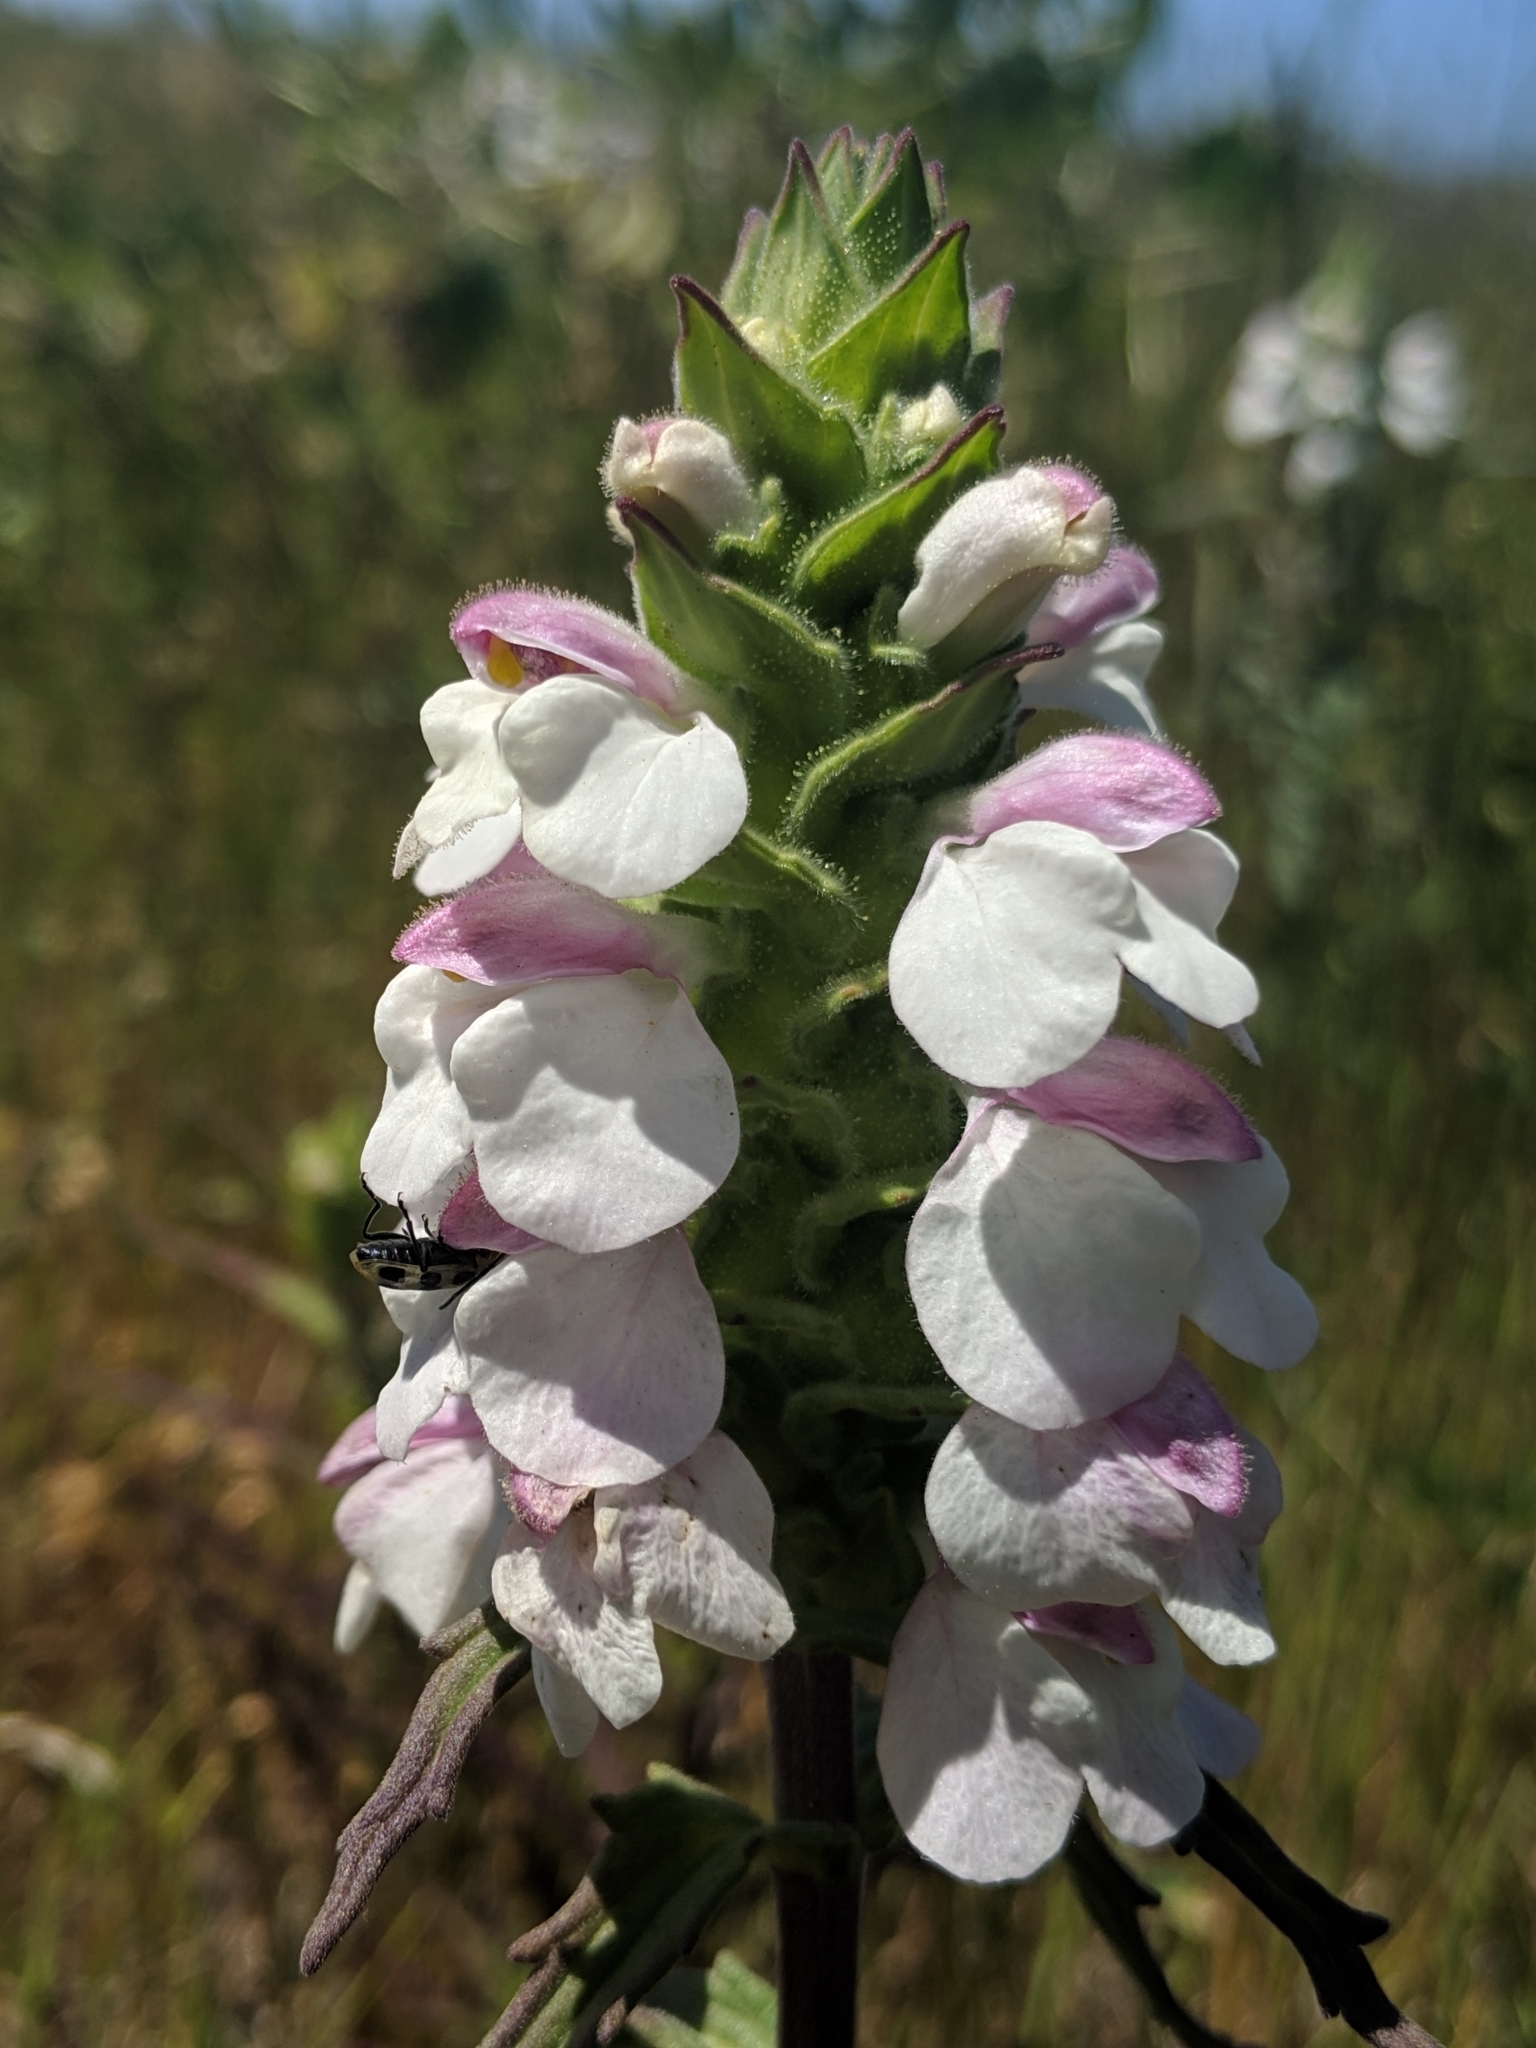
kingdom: Plantae
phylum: Tracheophyta
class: Magnoliopsida
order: Lamiales
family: Orobanchaceae
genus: Bellardia
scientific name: Bellardia trixago
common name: Mediterranean lineseed
